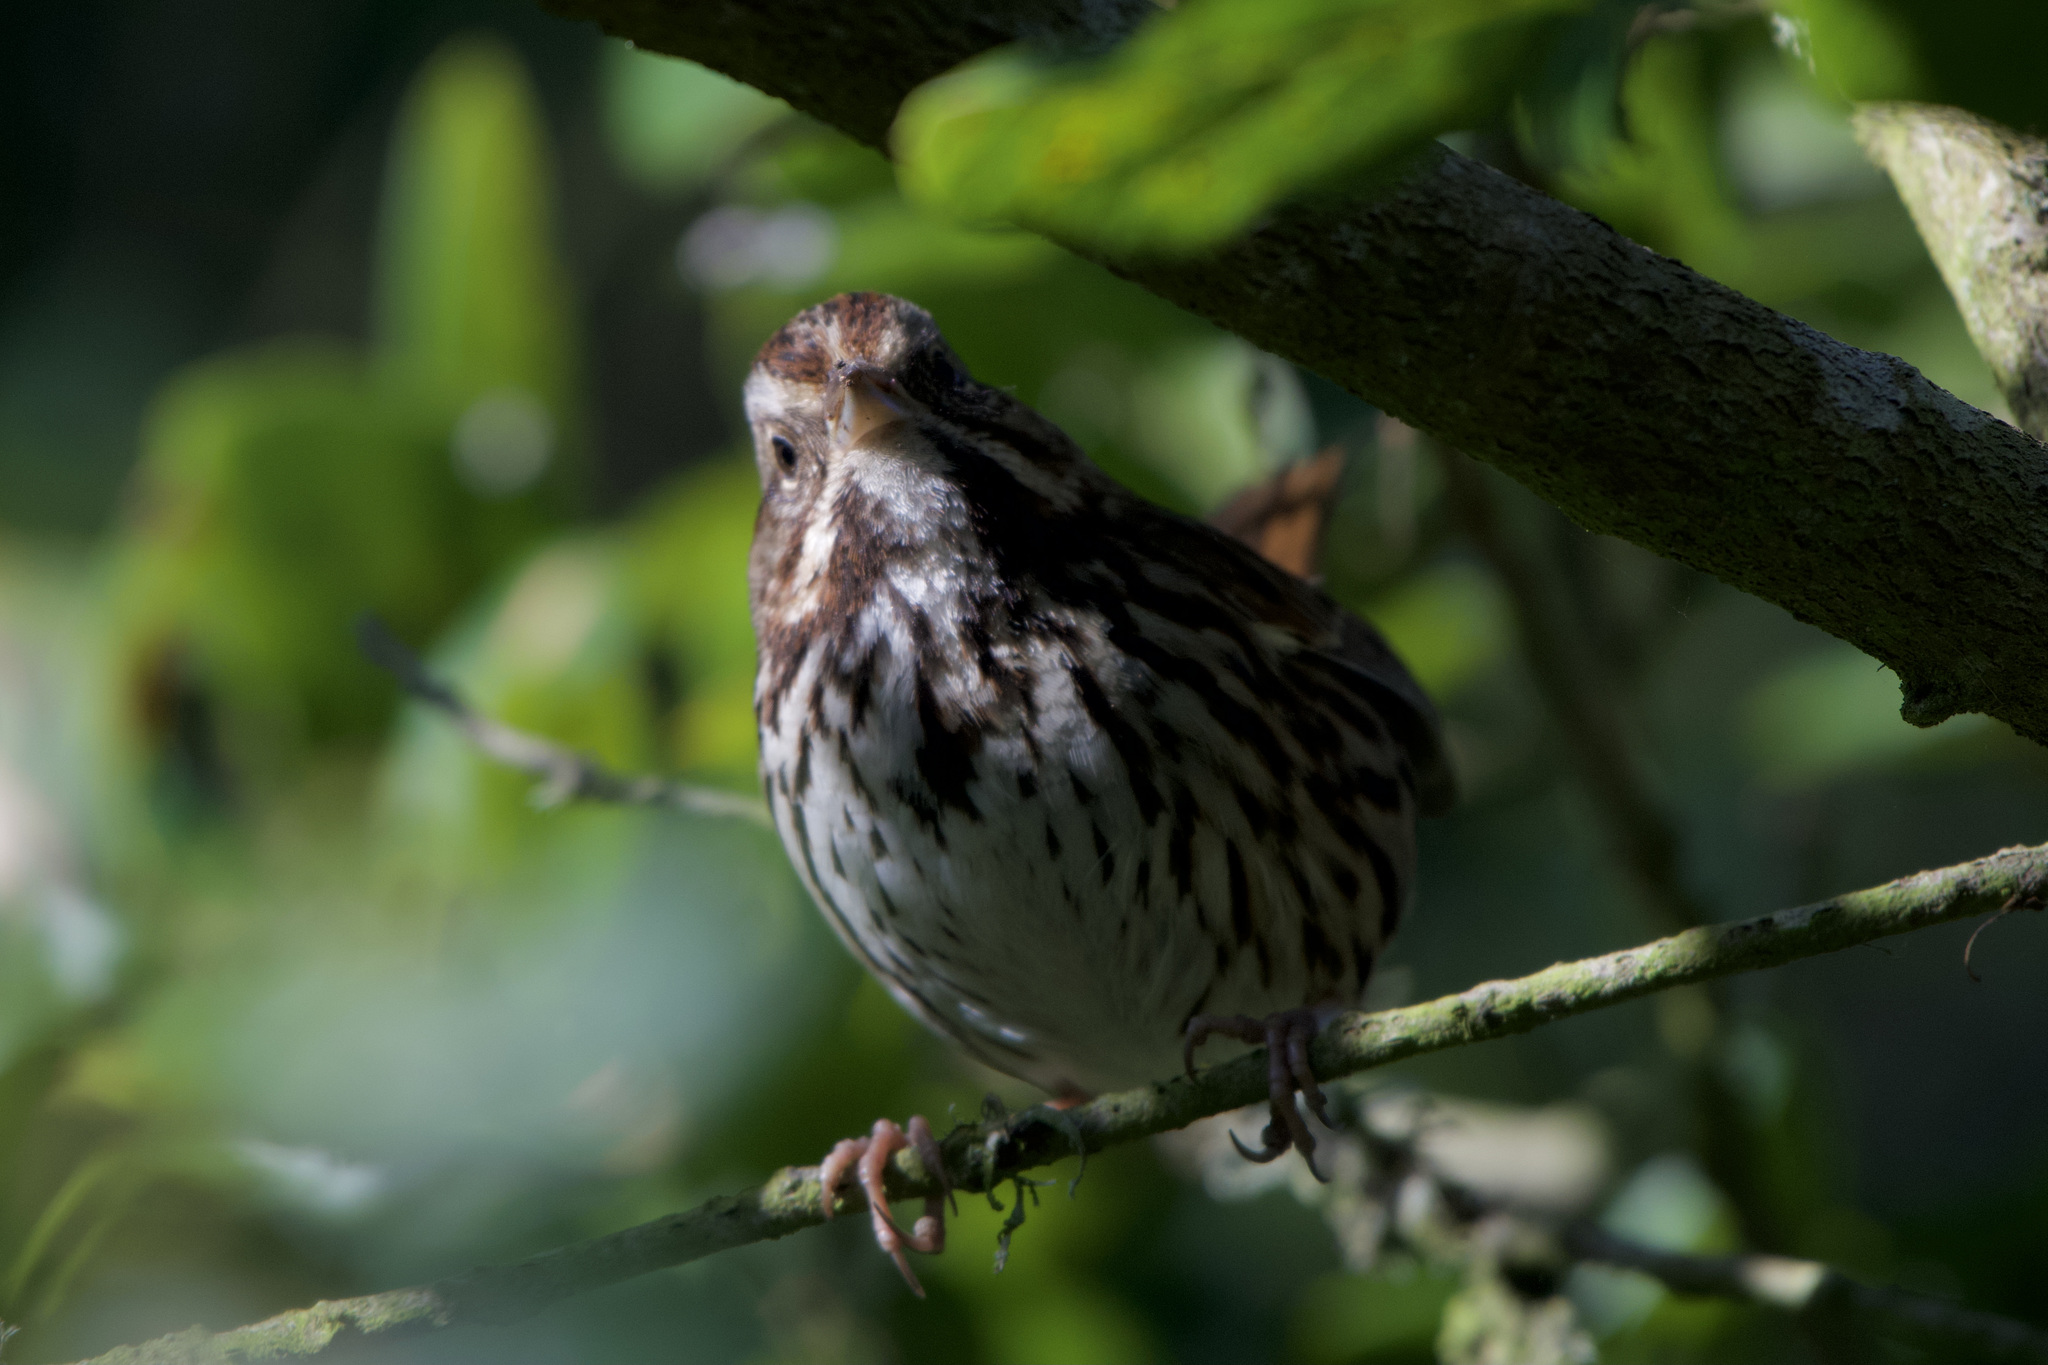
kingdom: Animalia
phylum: Chordata
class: Aves
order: Passeriformes
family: Passerellidae
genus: Melospiza
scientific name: Melospiza melodia
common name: Song sparrow
